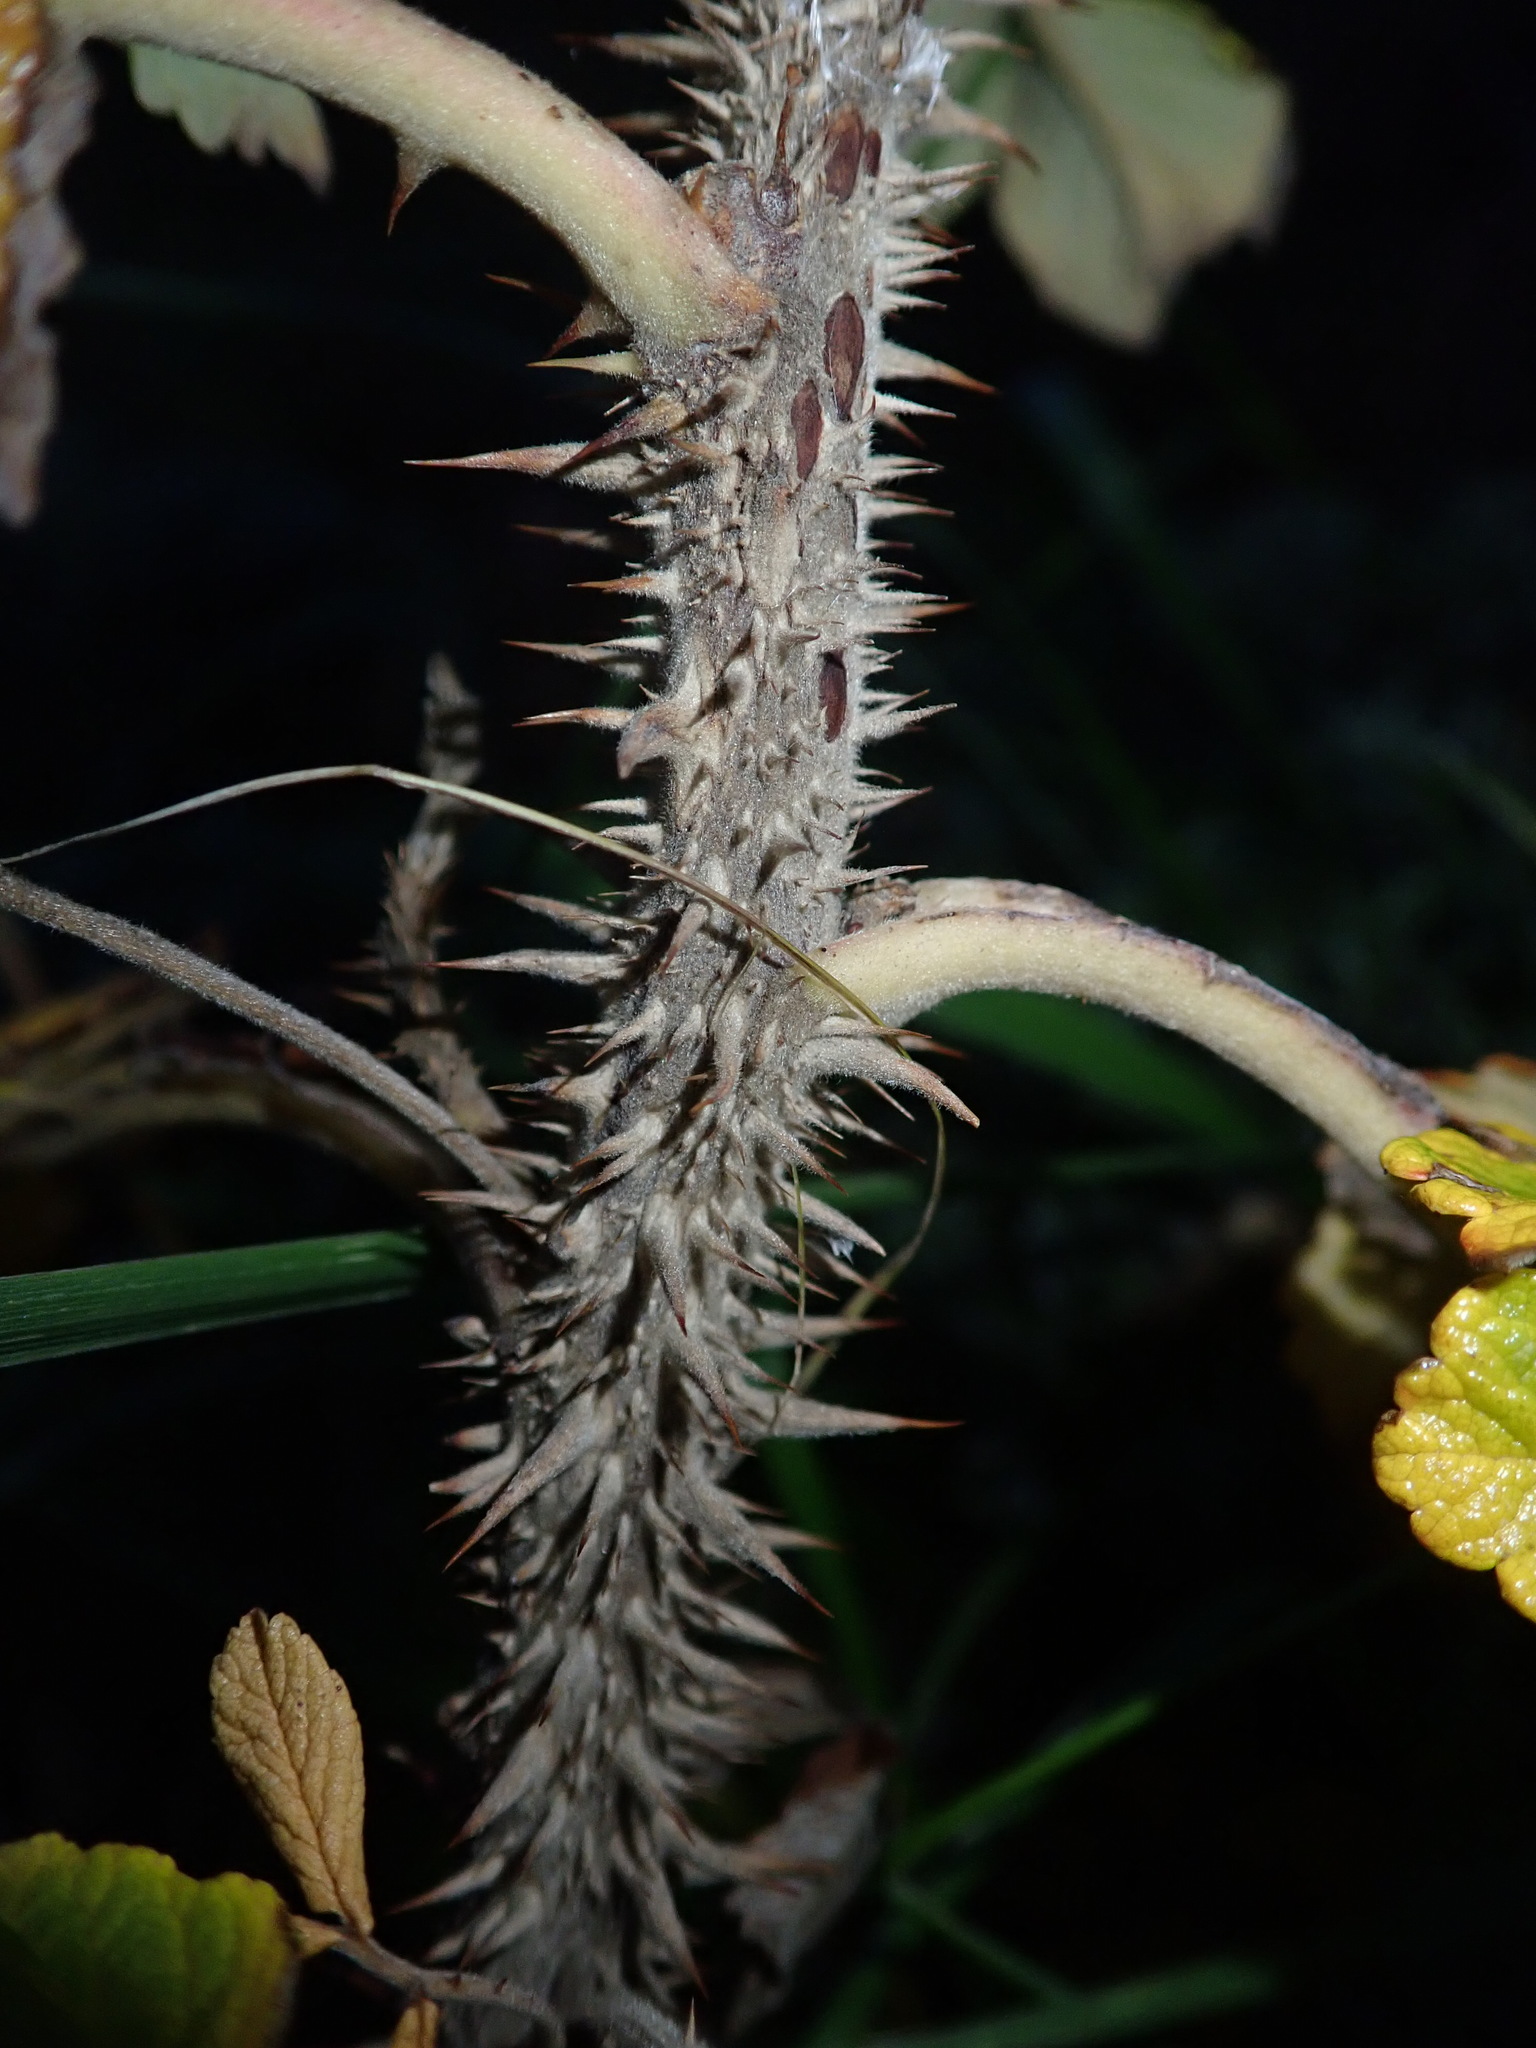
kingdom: Plantae
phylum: Tracheophyta
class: Magnoliopsida
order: Rosales
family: Rosaceae
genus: Rosa
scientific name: Rosa rugosa
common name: Japanese rose
